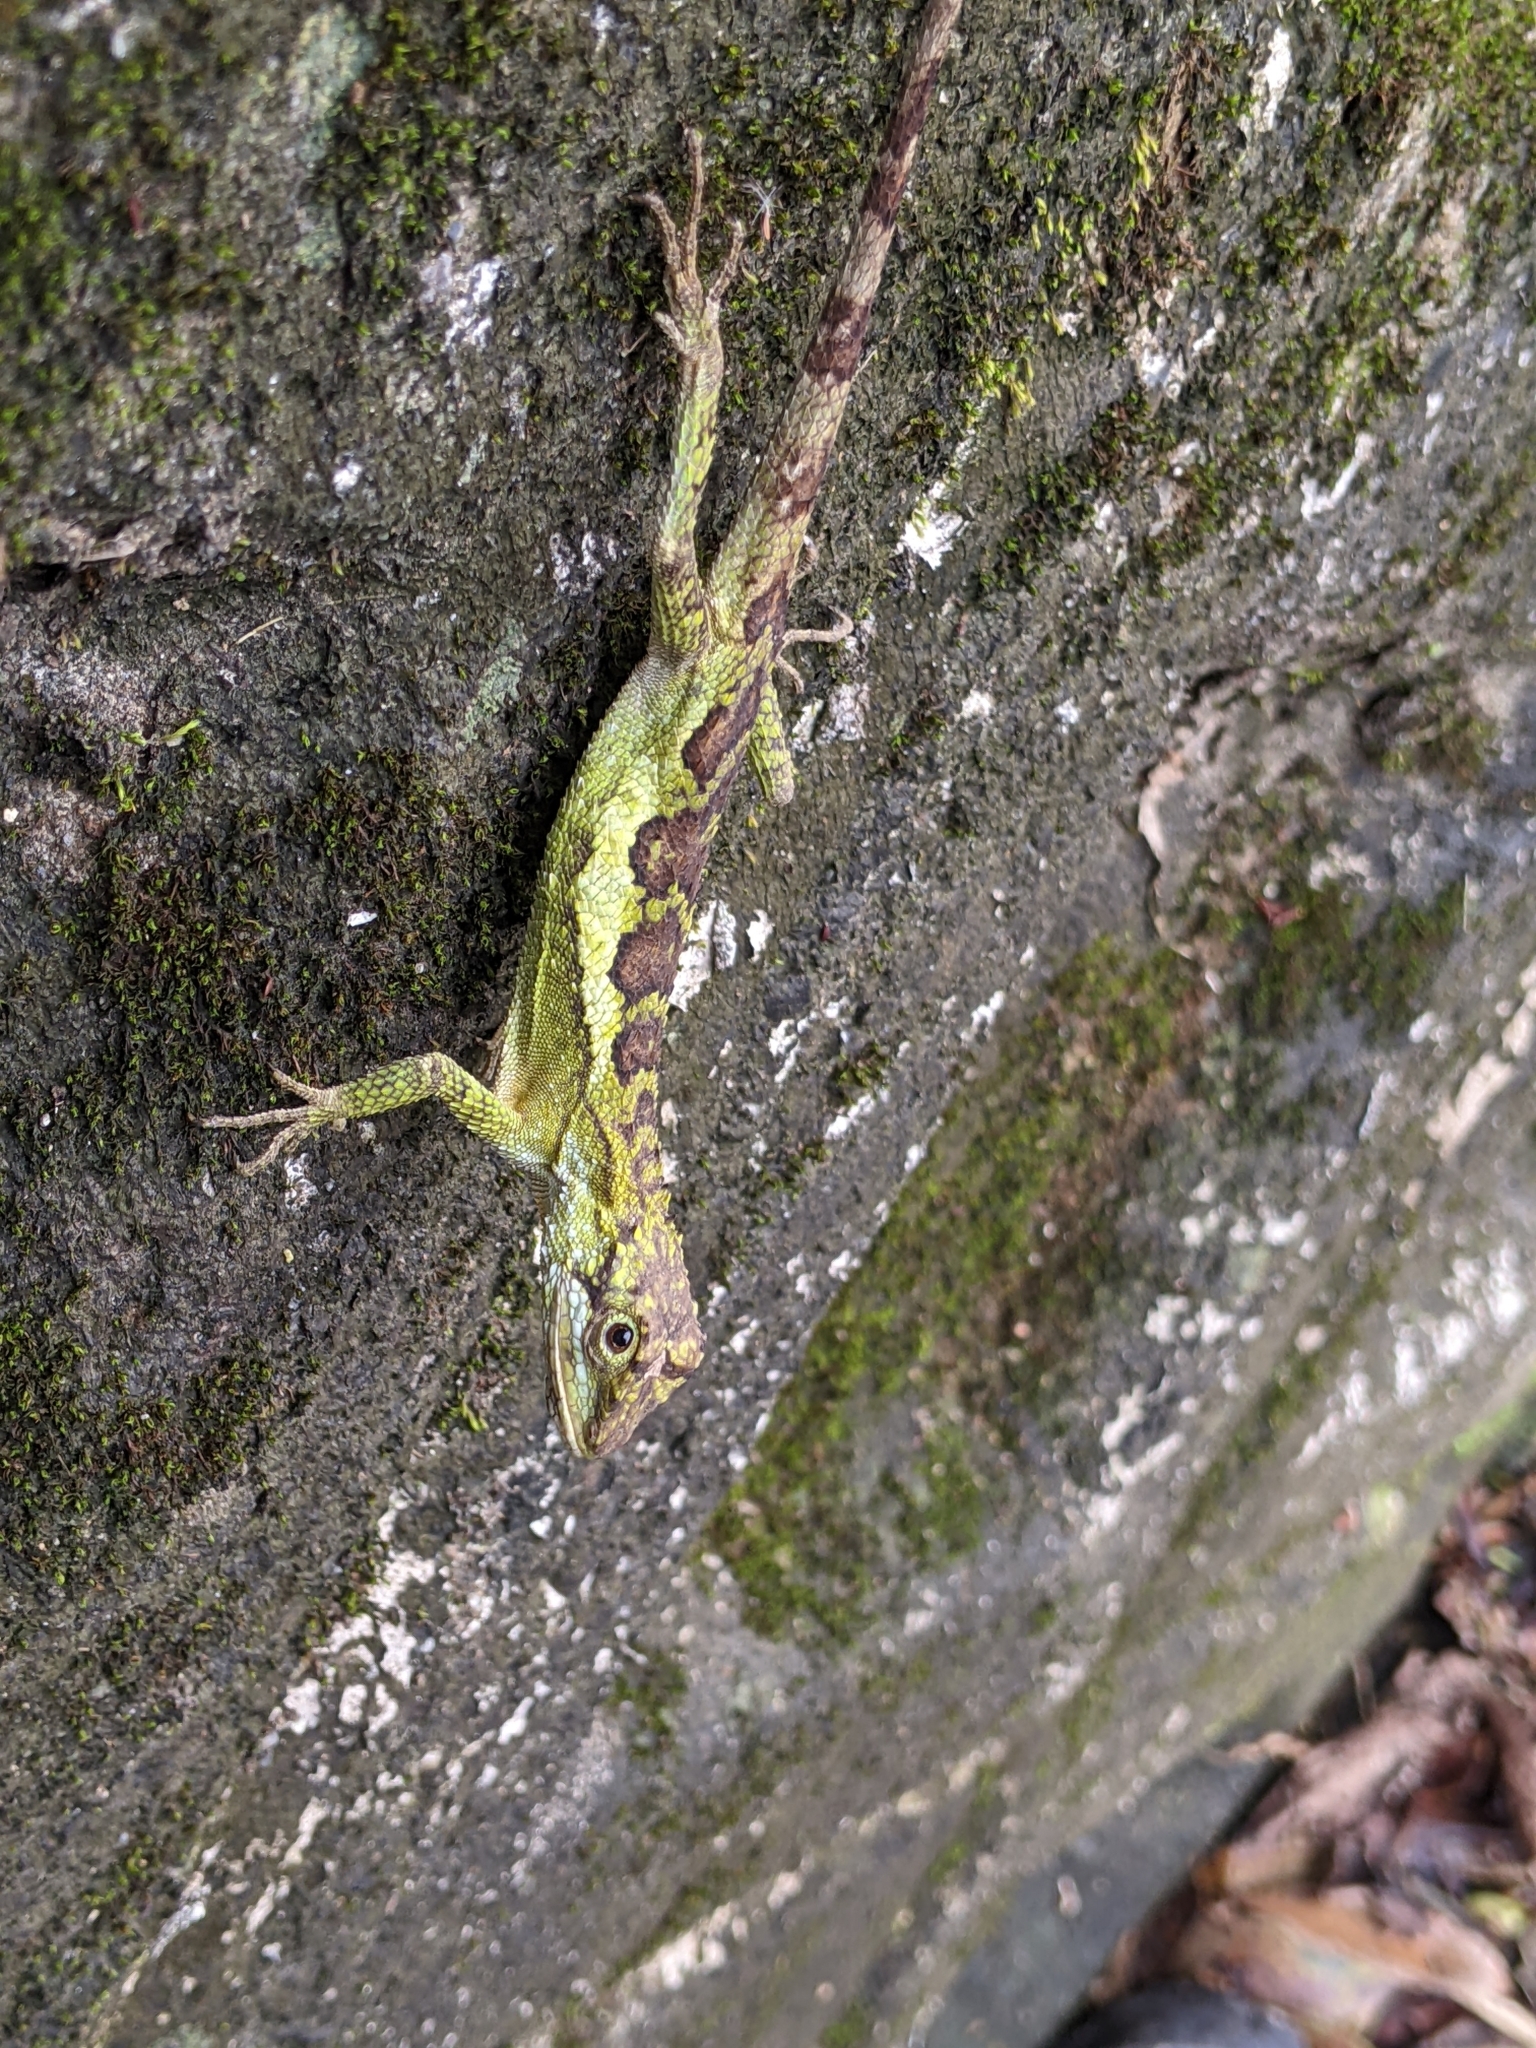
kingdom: Fungi
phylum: Basidiomycota
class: Agaricomycetes
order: Boletales
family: Diplocystidiaceae
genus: Diploderma
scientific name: Diploderma polygonatum
